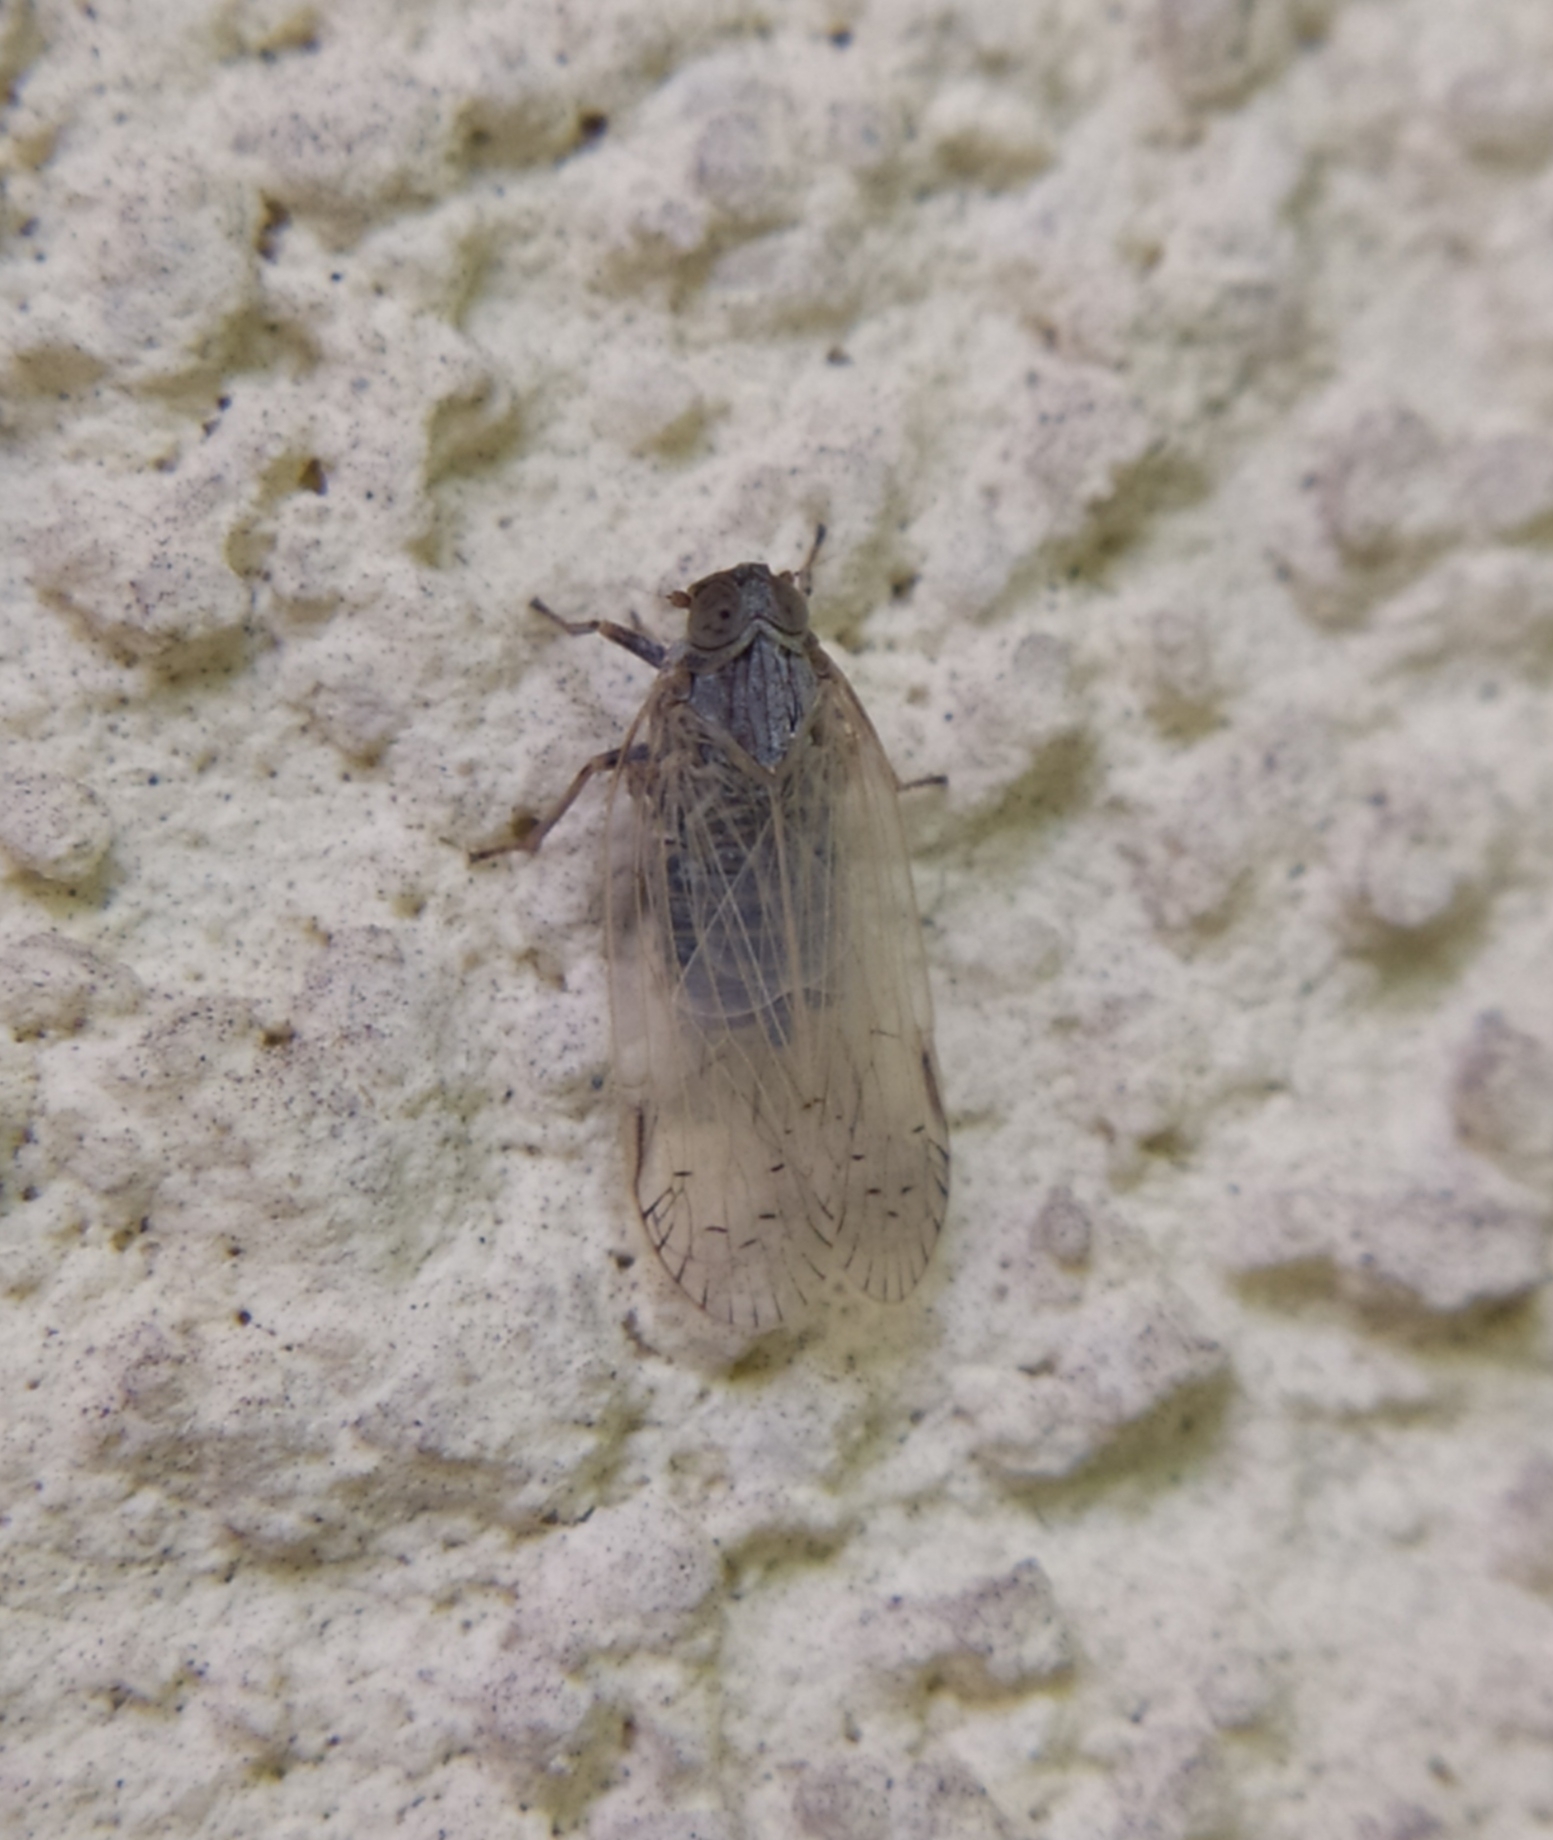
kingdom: Animalia
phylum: Arthropoda
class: Insecta
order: Hemiptera
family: Cixiidae
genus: Pentastiridius
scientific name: Pentastiridius leporinus
